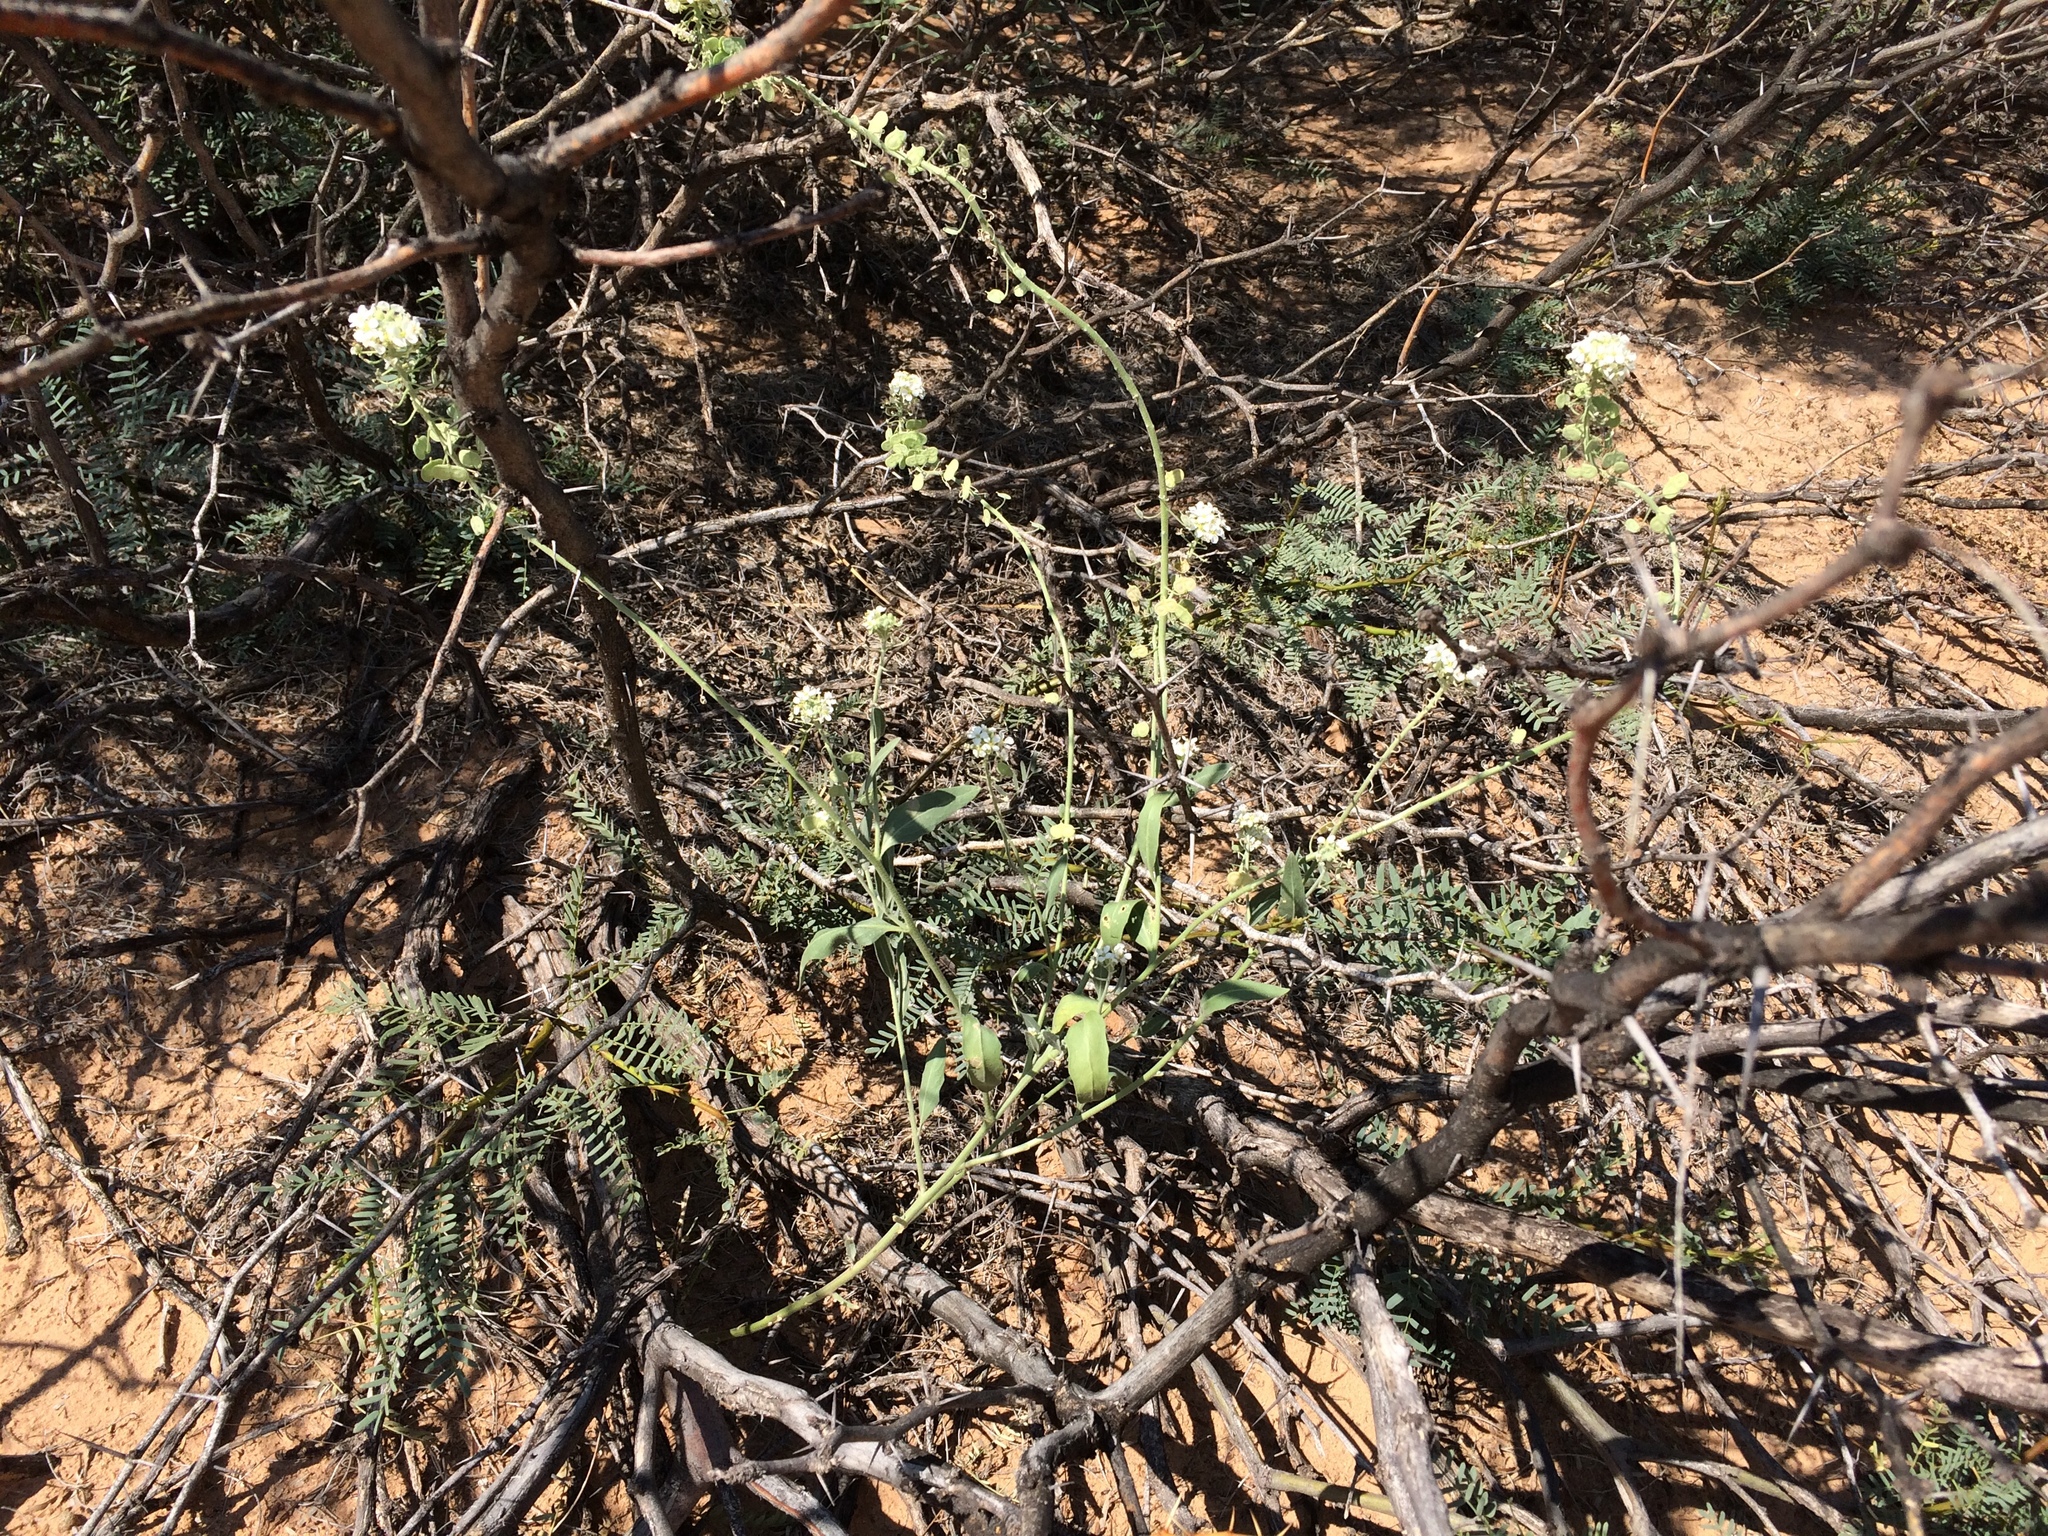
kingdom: Plantae
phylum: Tracheophyta
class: Magnoliopsida
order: Brassicales
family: Brassicaceae
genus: Dimorphocarpa
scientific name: Dimorphocarpa wislizenii
